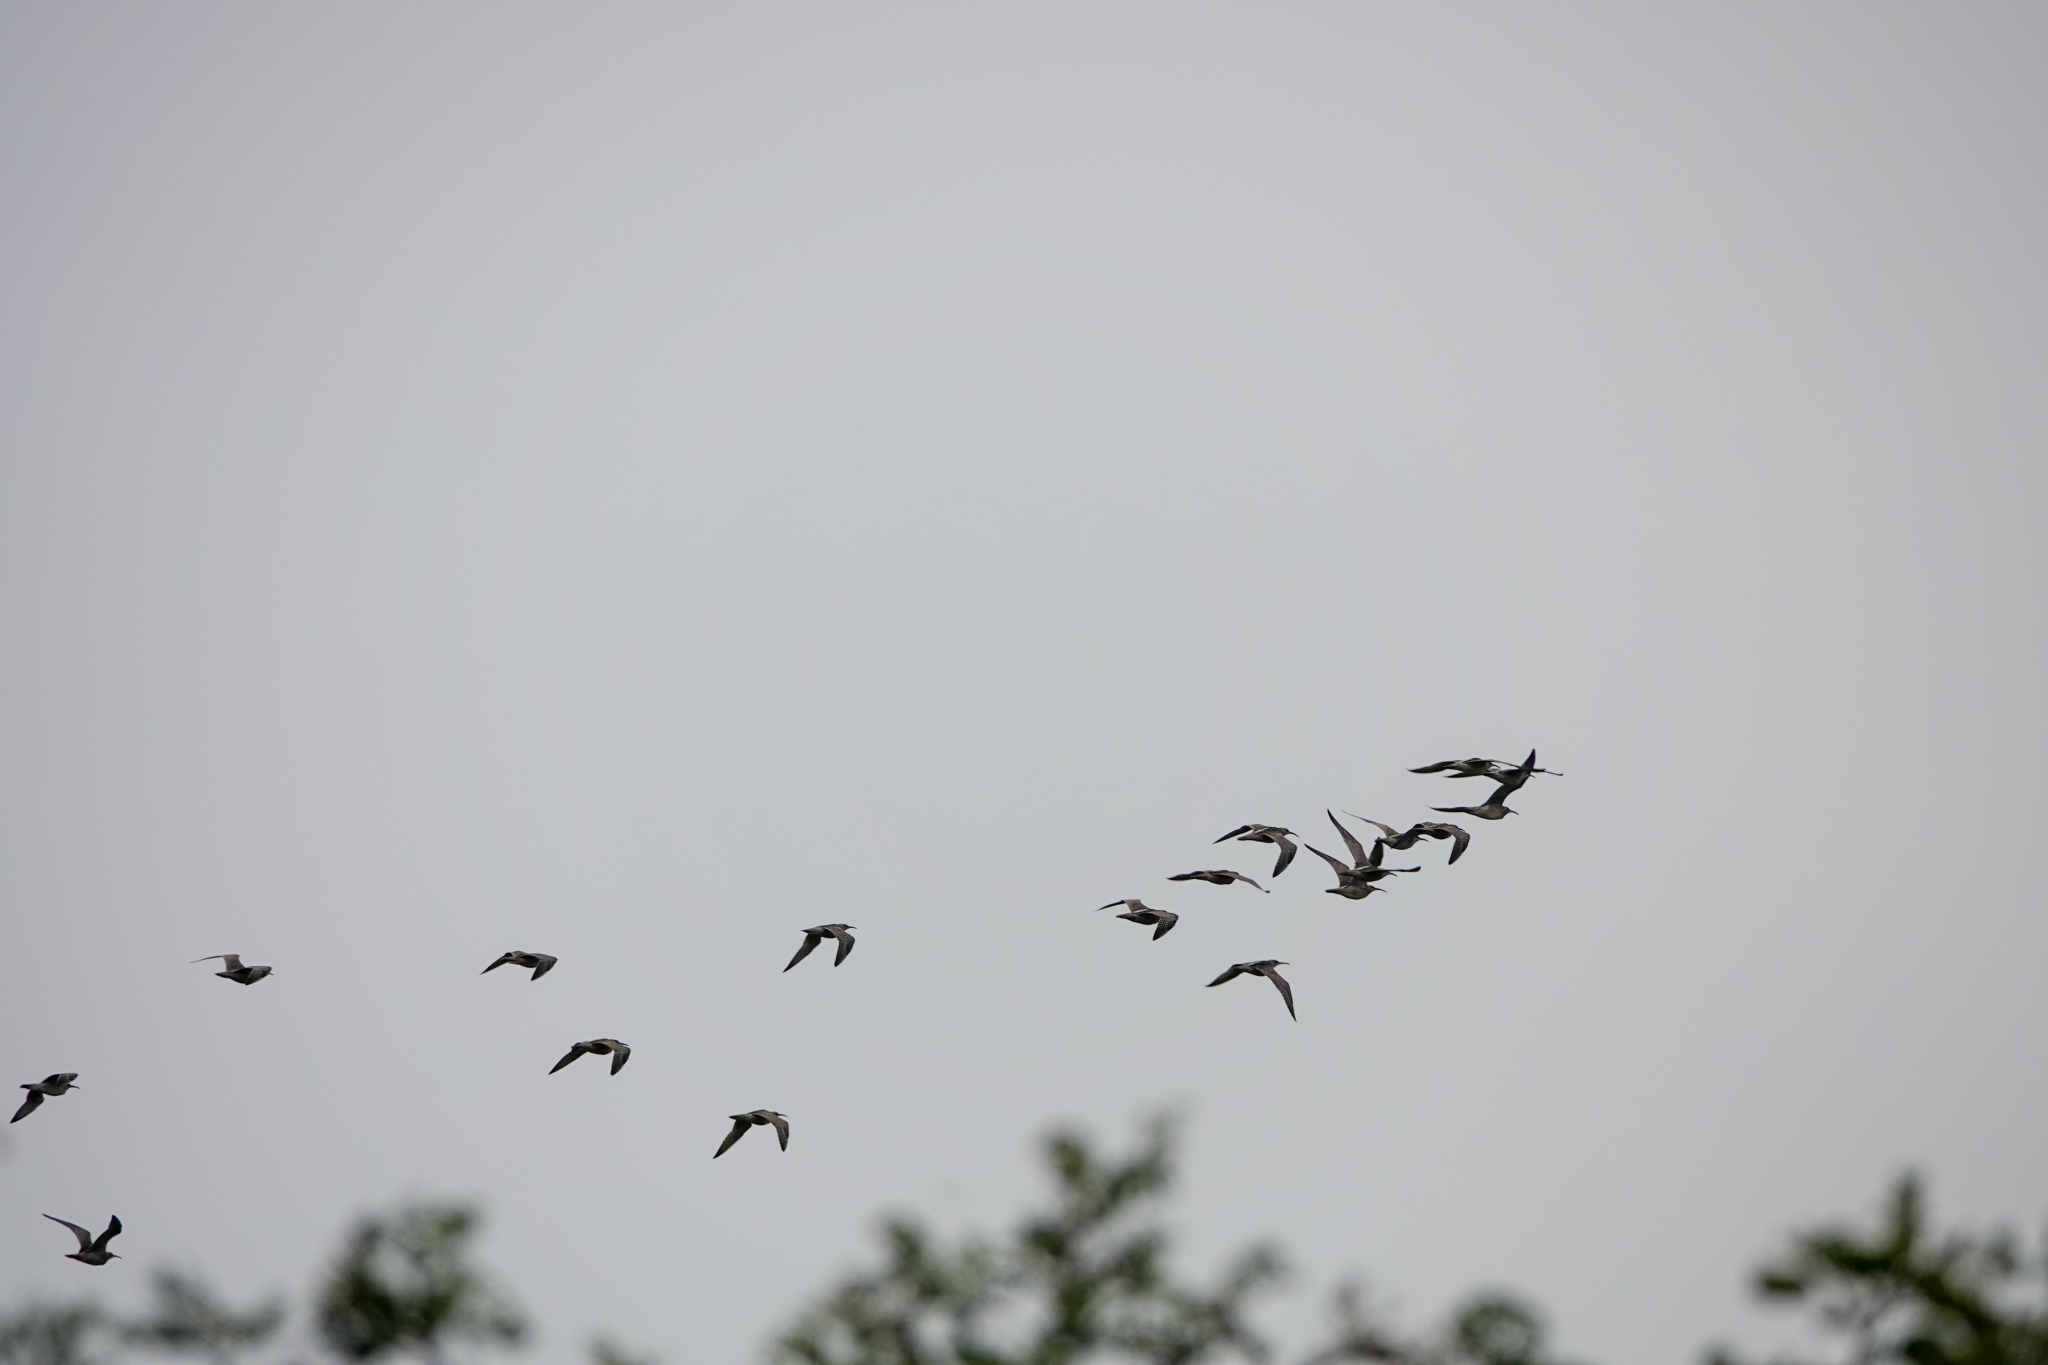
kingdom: Animalia
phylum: Chordata
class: Aves
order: Charadriiformes
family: Scolopacidae
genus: Numenius
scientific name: Numenius phaeopus
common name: Whimbrel
